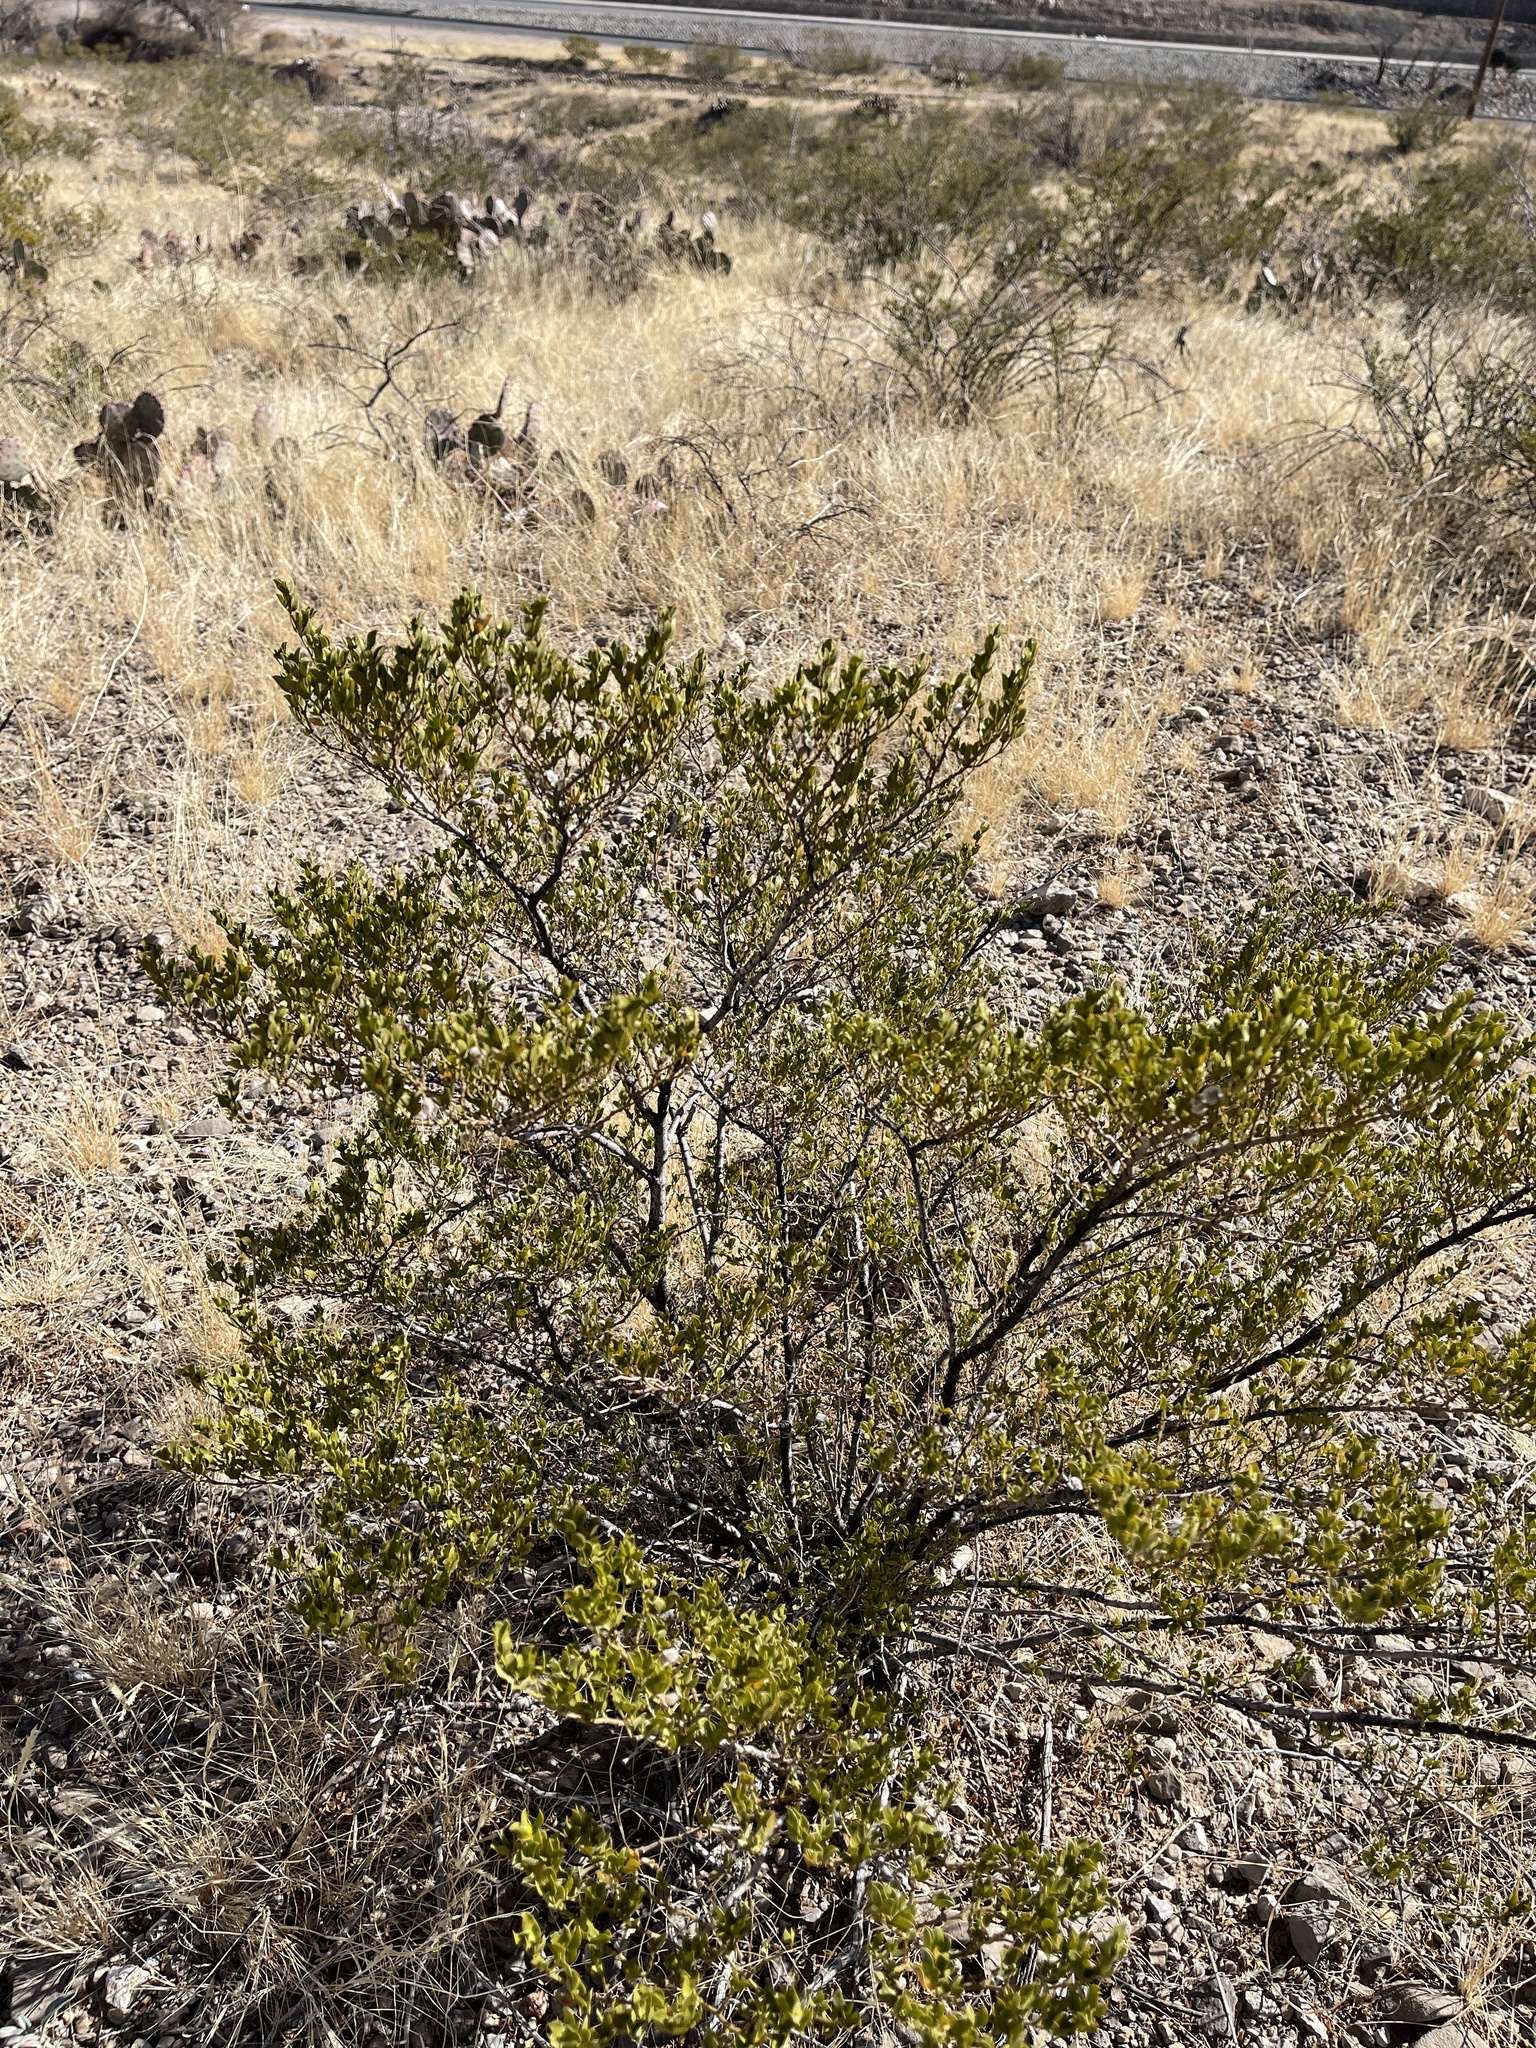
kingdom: Plantae
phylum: Tracheophyta
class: Magnoliopsida
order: Zygophyllales
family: Zygophyllaceae
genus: Larrea
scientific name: Larrea tridentata
